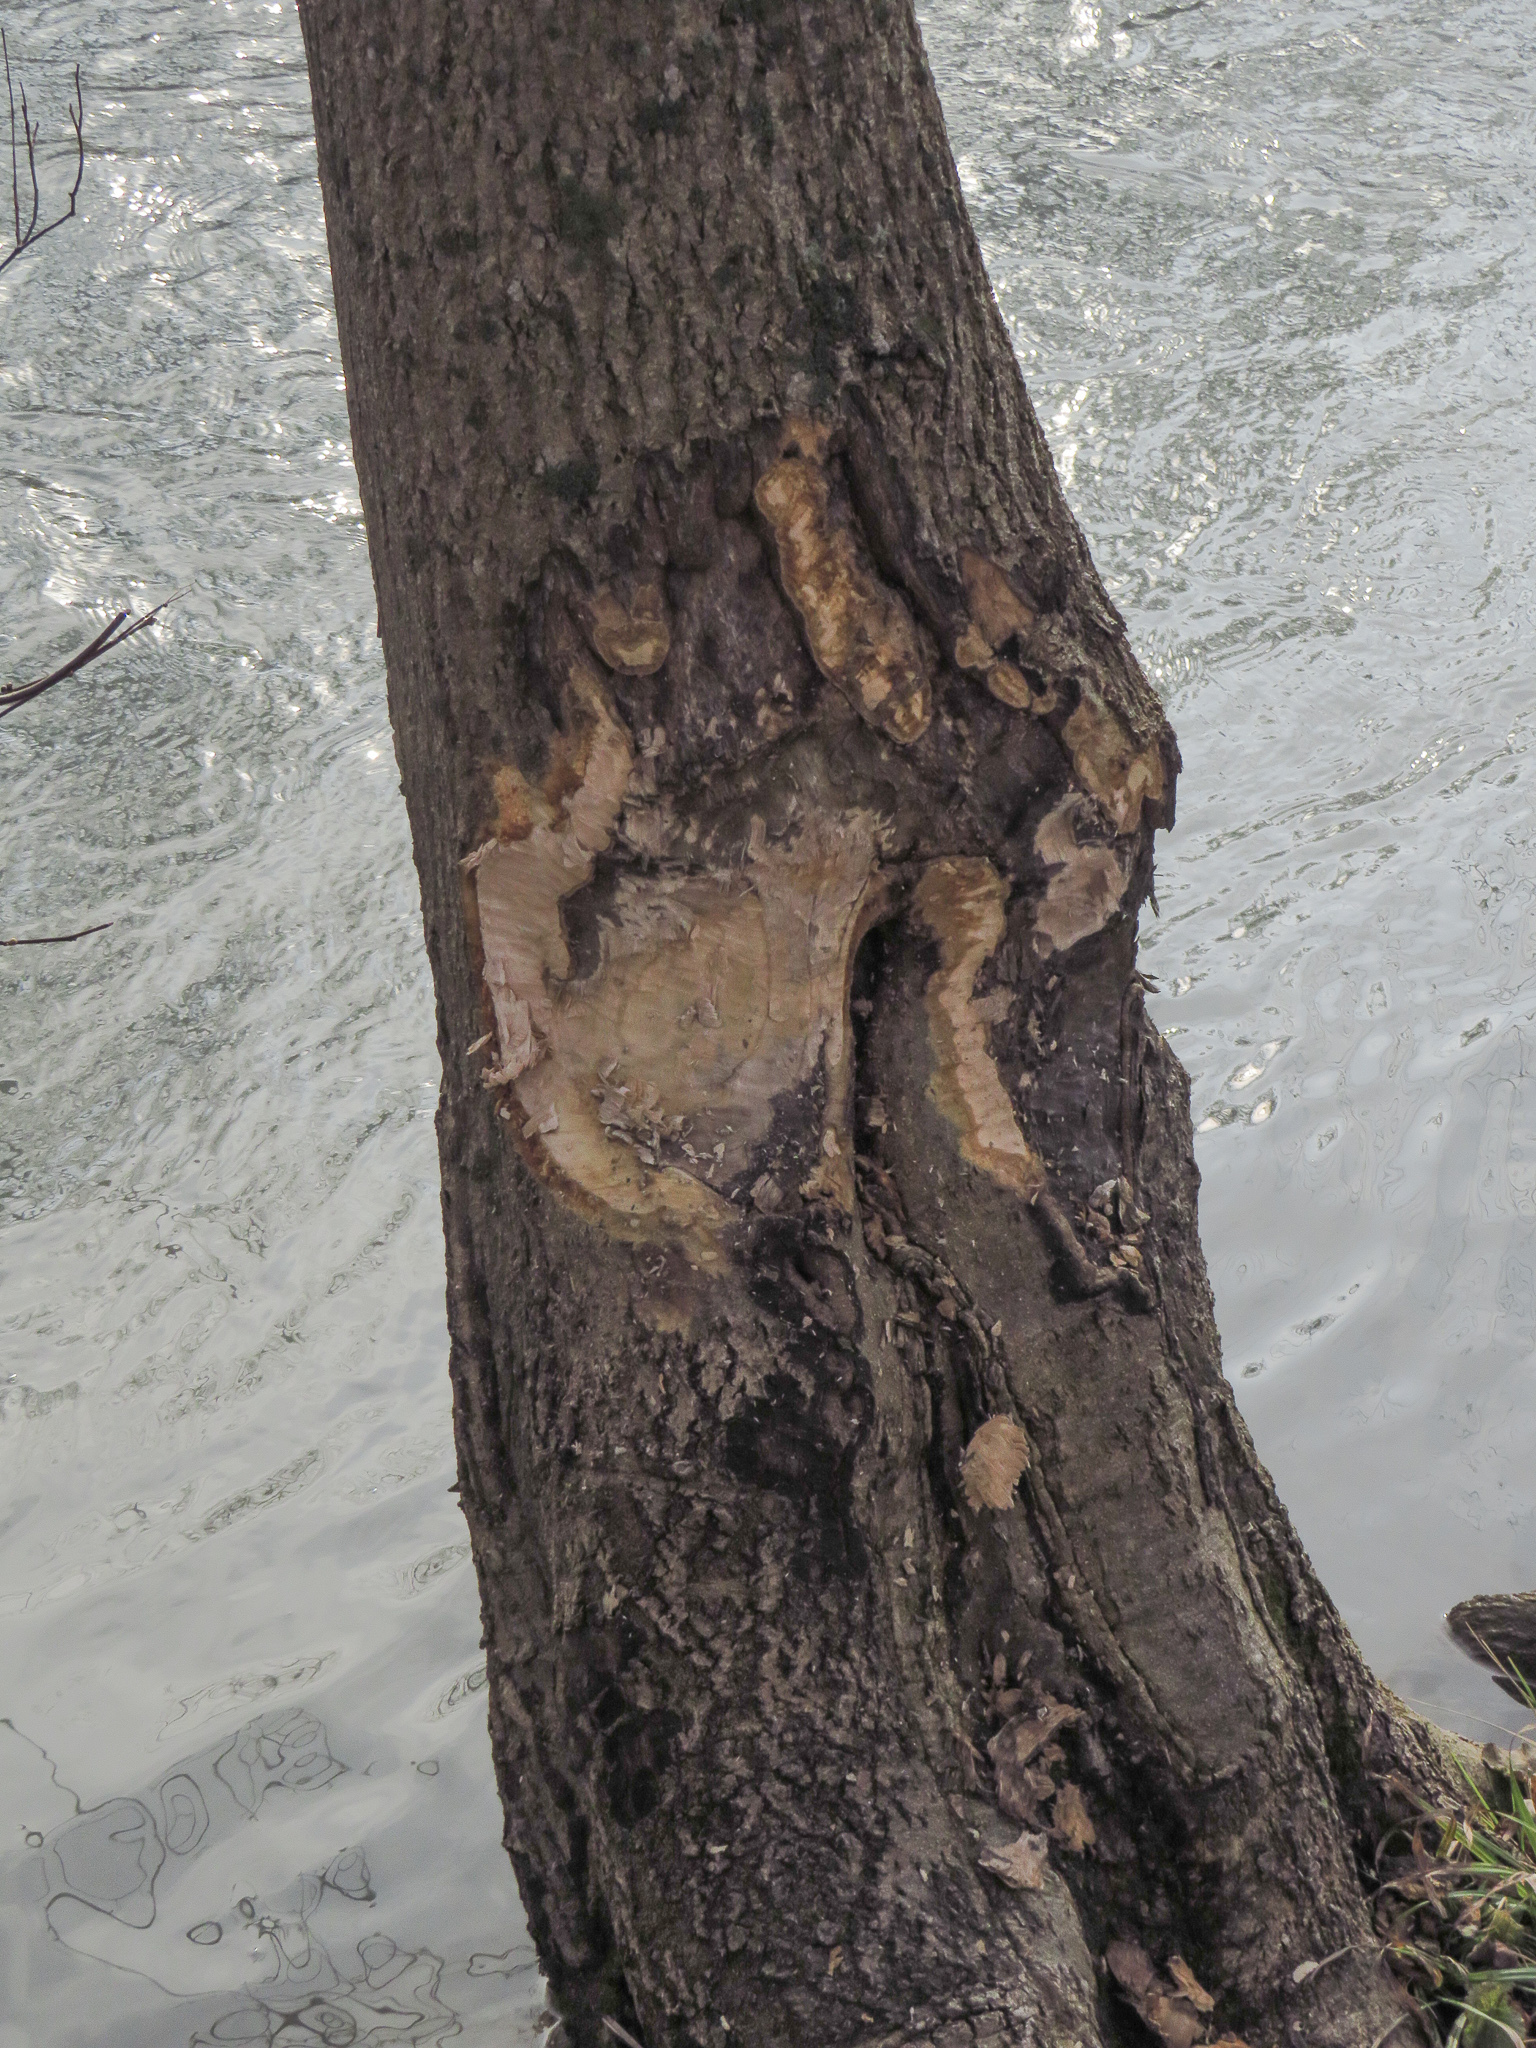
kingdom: Animalia
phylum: Chordata
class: Mammalia
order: Rodentia
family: Castoridae
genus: Castor
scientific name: Castor canadensis
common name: American beaver
